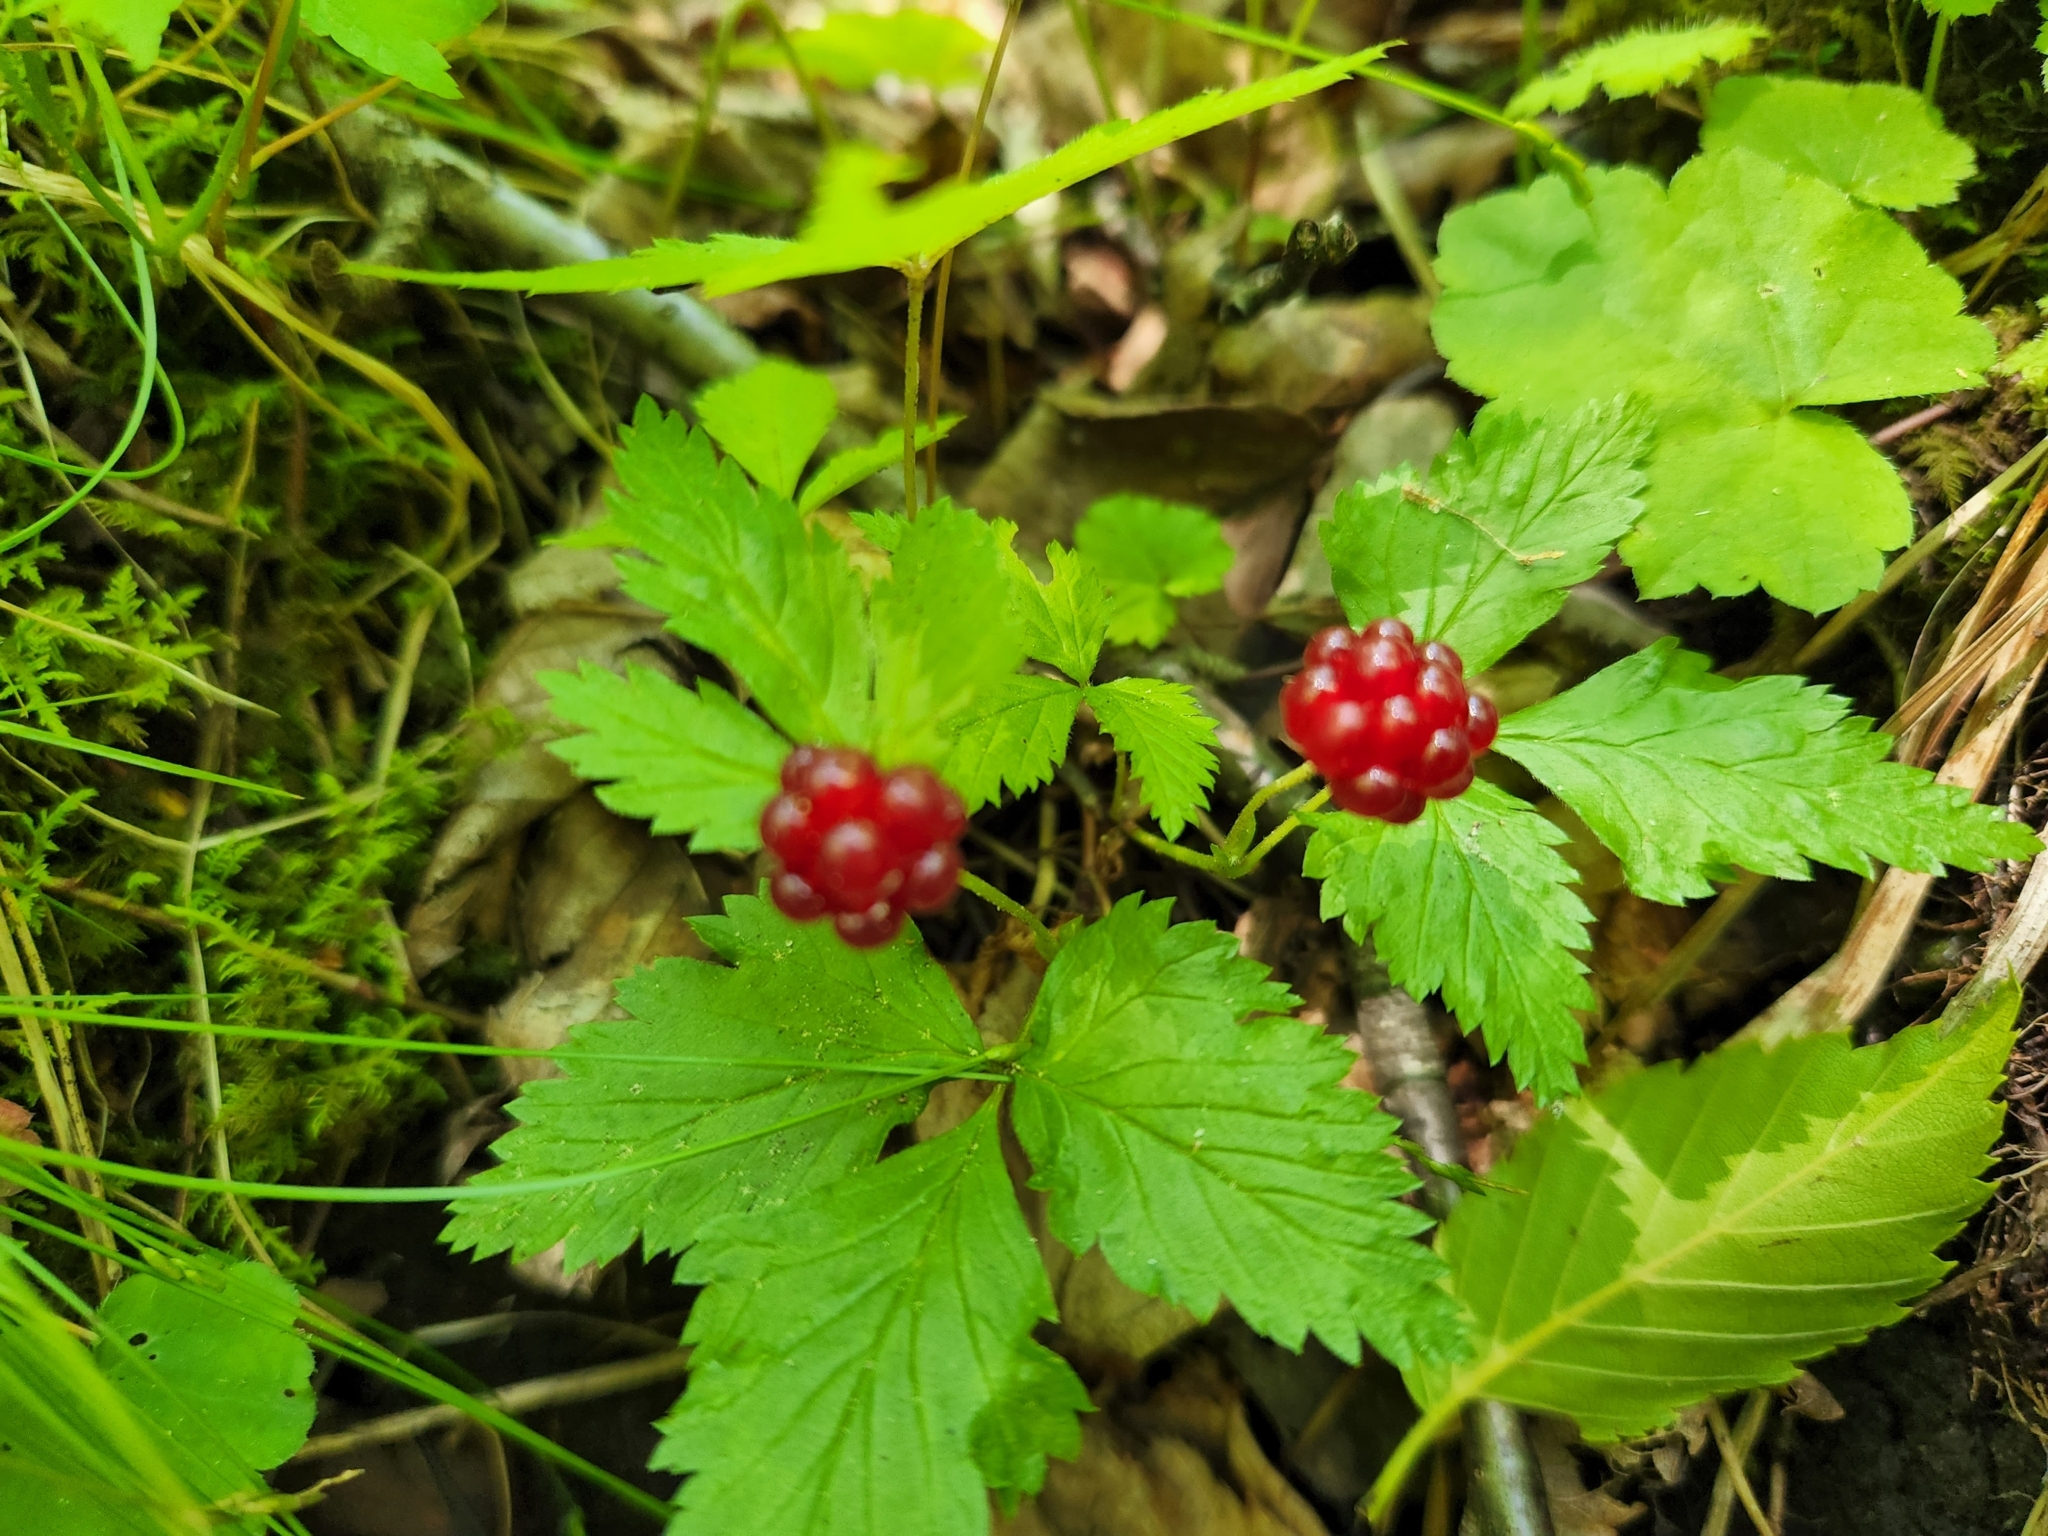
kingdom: Plantae
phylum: Tracheophyta
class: Magnoliopsida
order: Rosales
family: Rosaceae
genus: Rubus
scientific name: Rubus pubescens
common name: Dwarf raspberry
